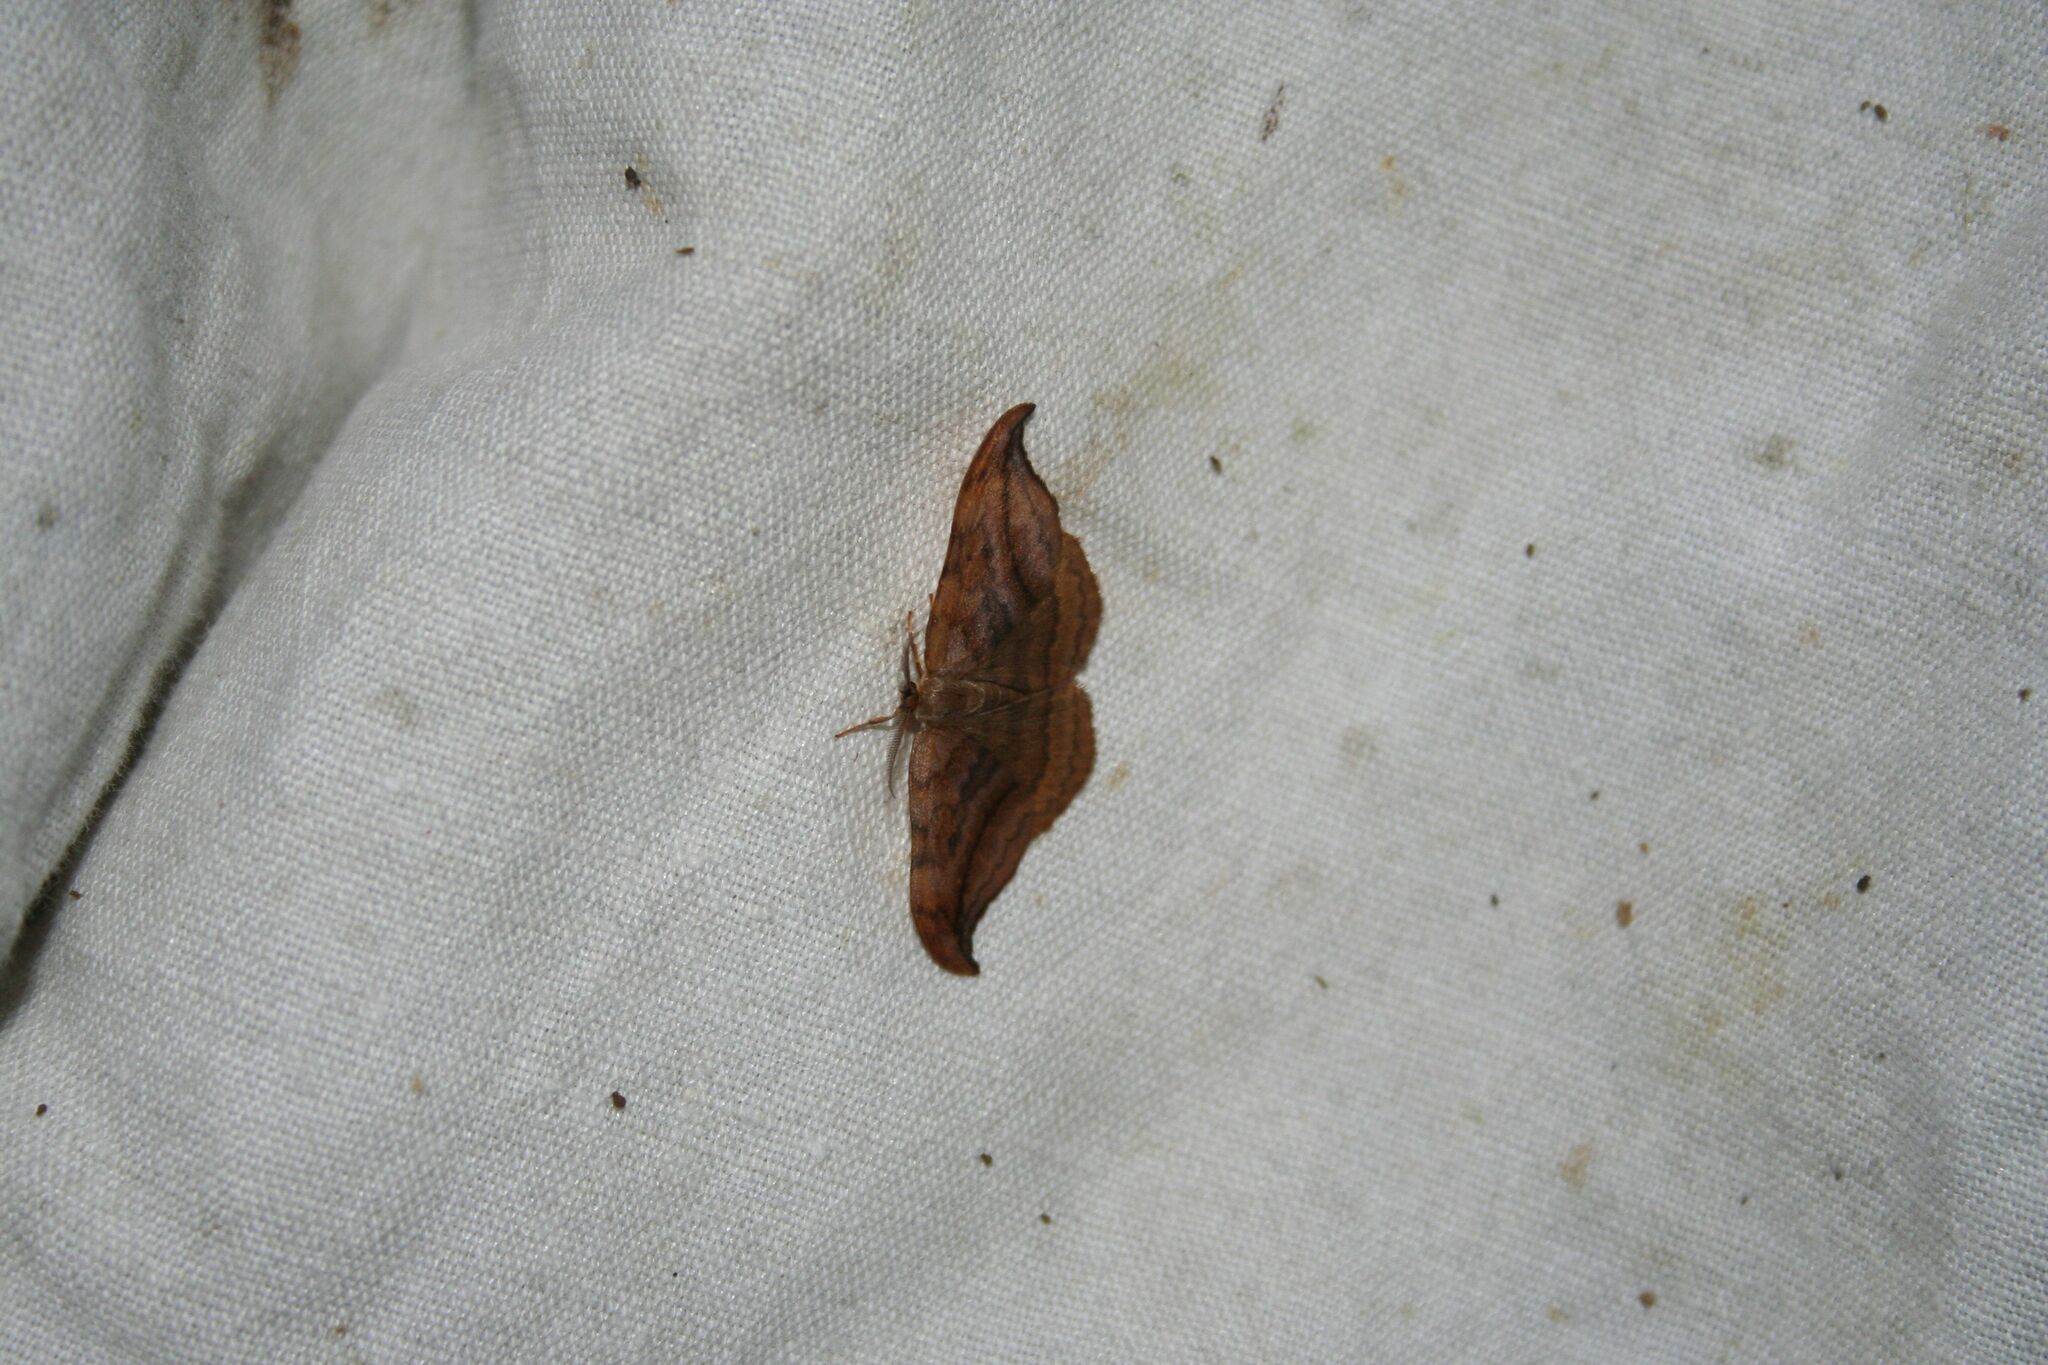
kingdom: Animalia
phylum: Arthropoda
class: Insecta
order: Lepidoptera
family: Drepanidae
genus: Drepana
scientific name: Drepana curvatula
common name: Dusky hook-tip
